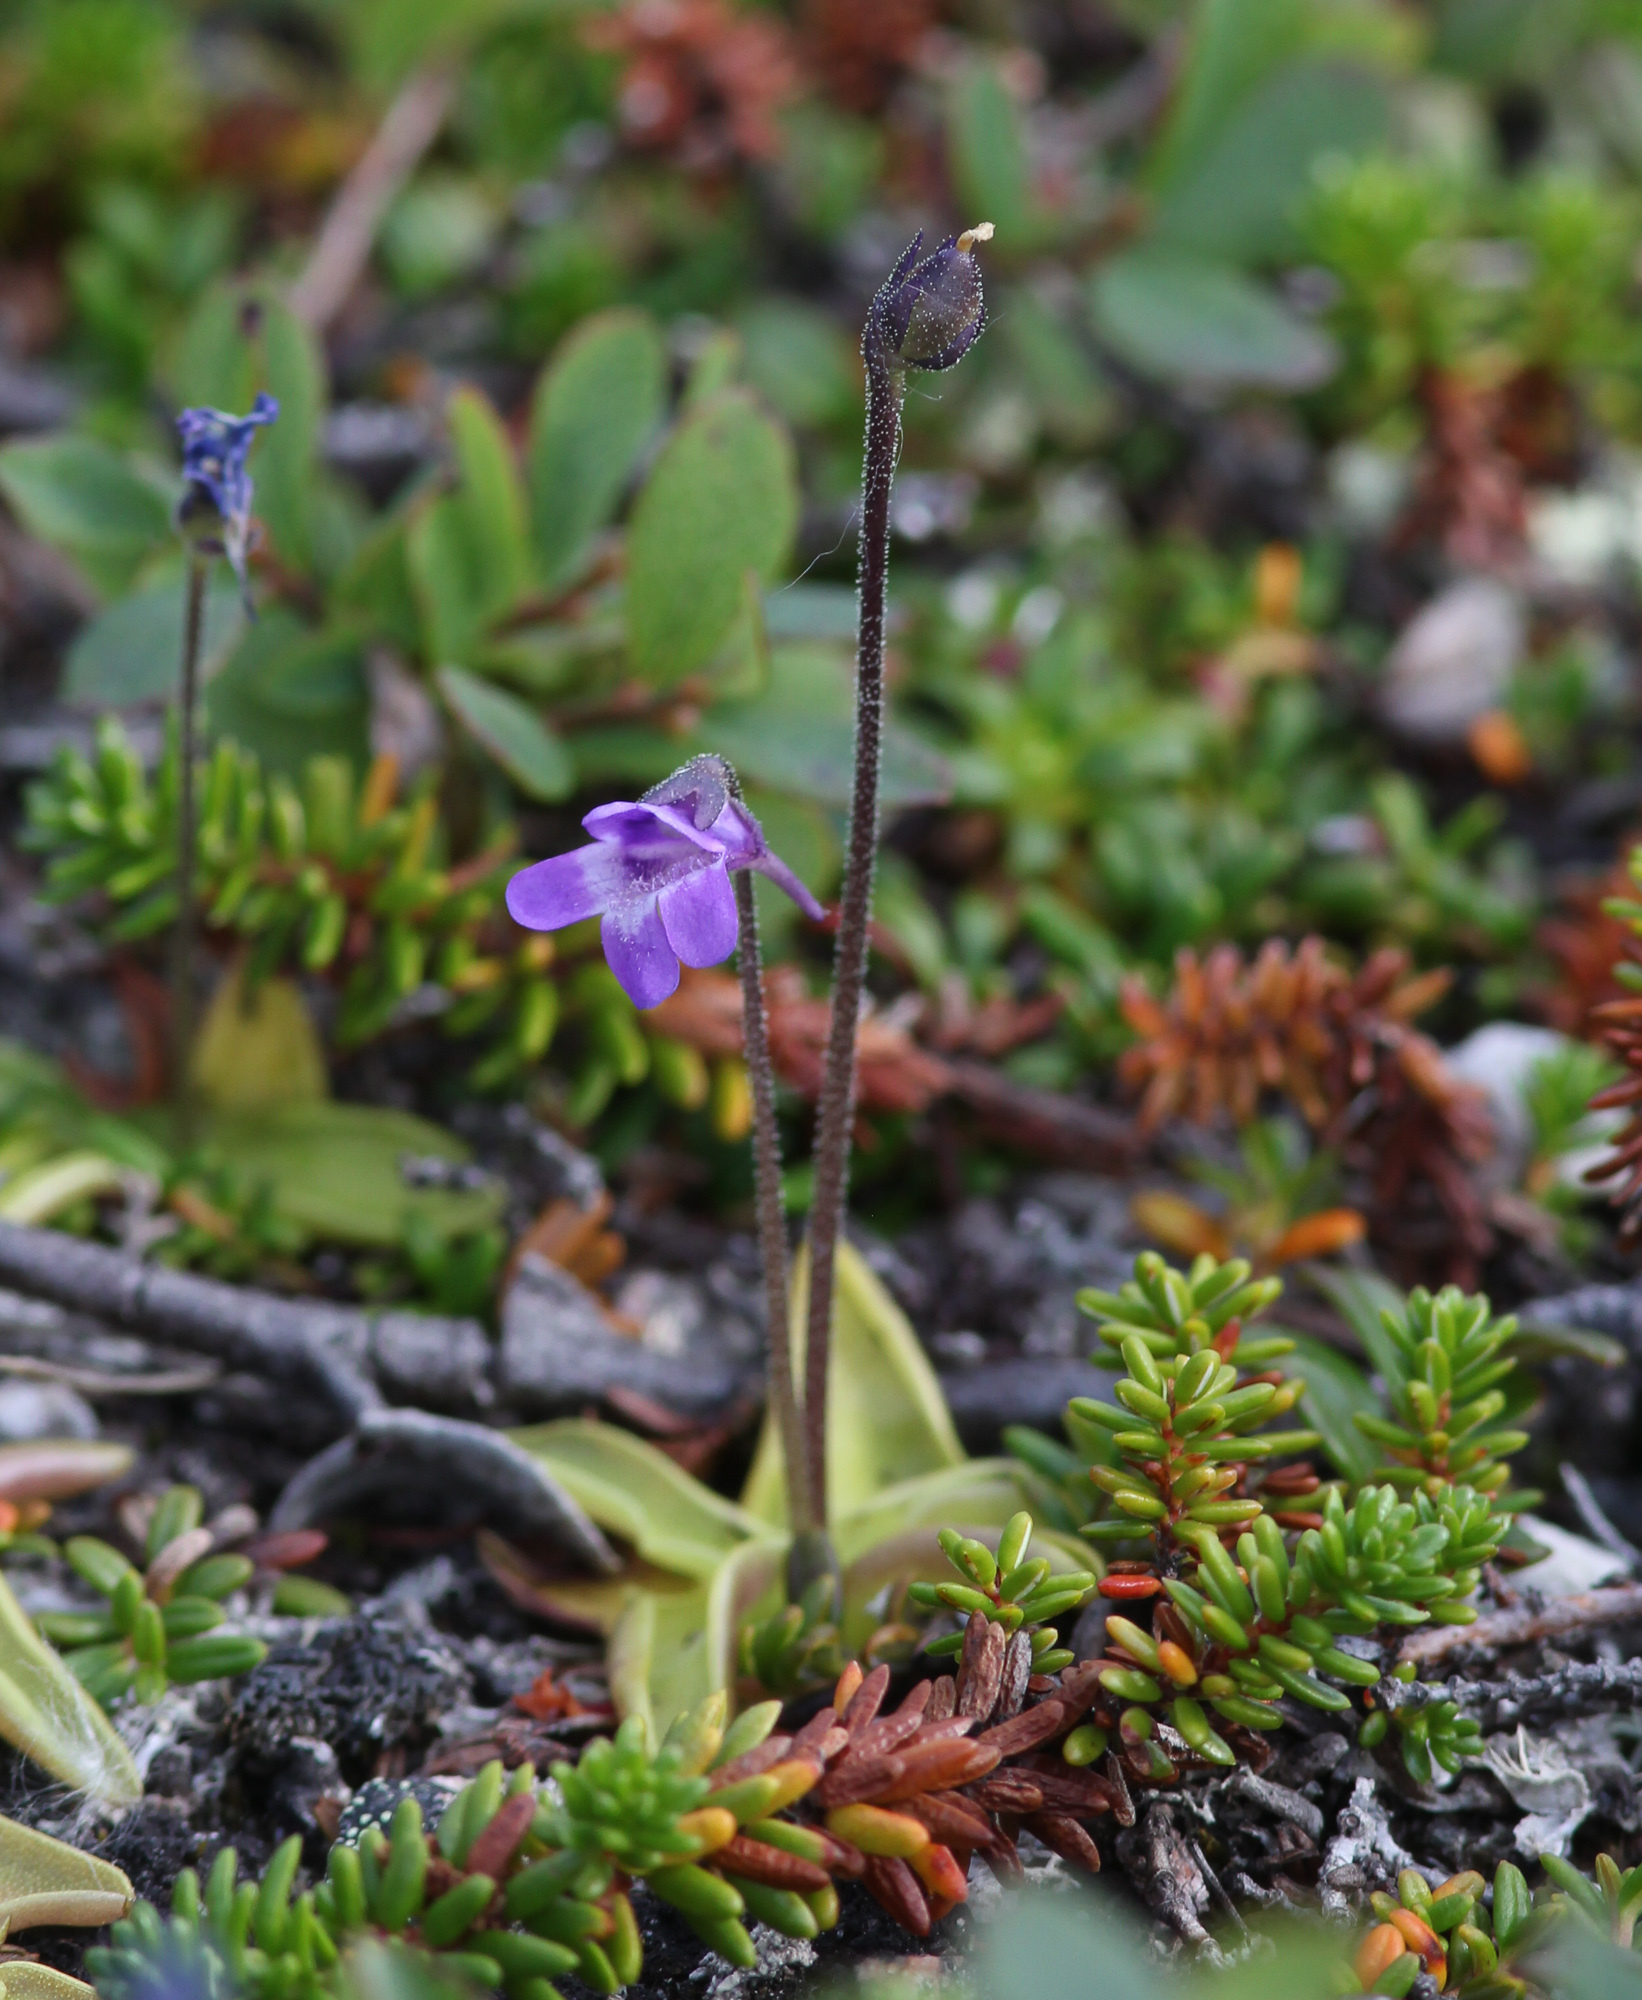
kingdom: Plantae
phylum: Tracheophyta
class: Magnoliopsida
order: Lamiales
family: Lentibulariaceae
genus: Pinguicula
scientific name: Pinguicula vulgaris
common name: Common butterwort
